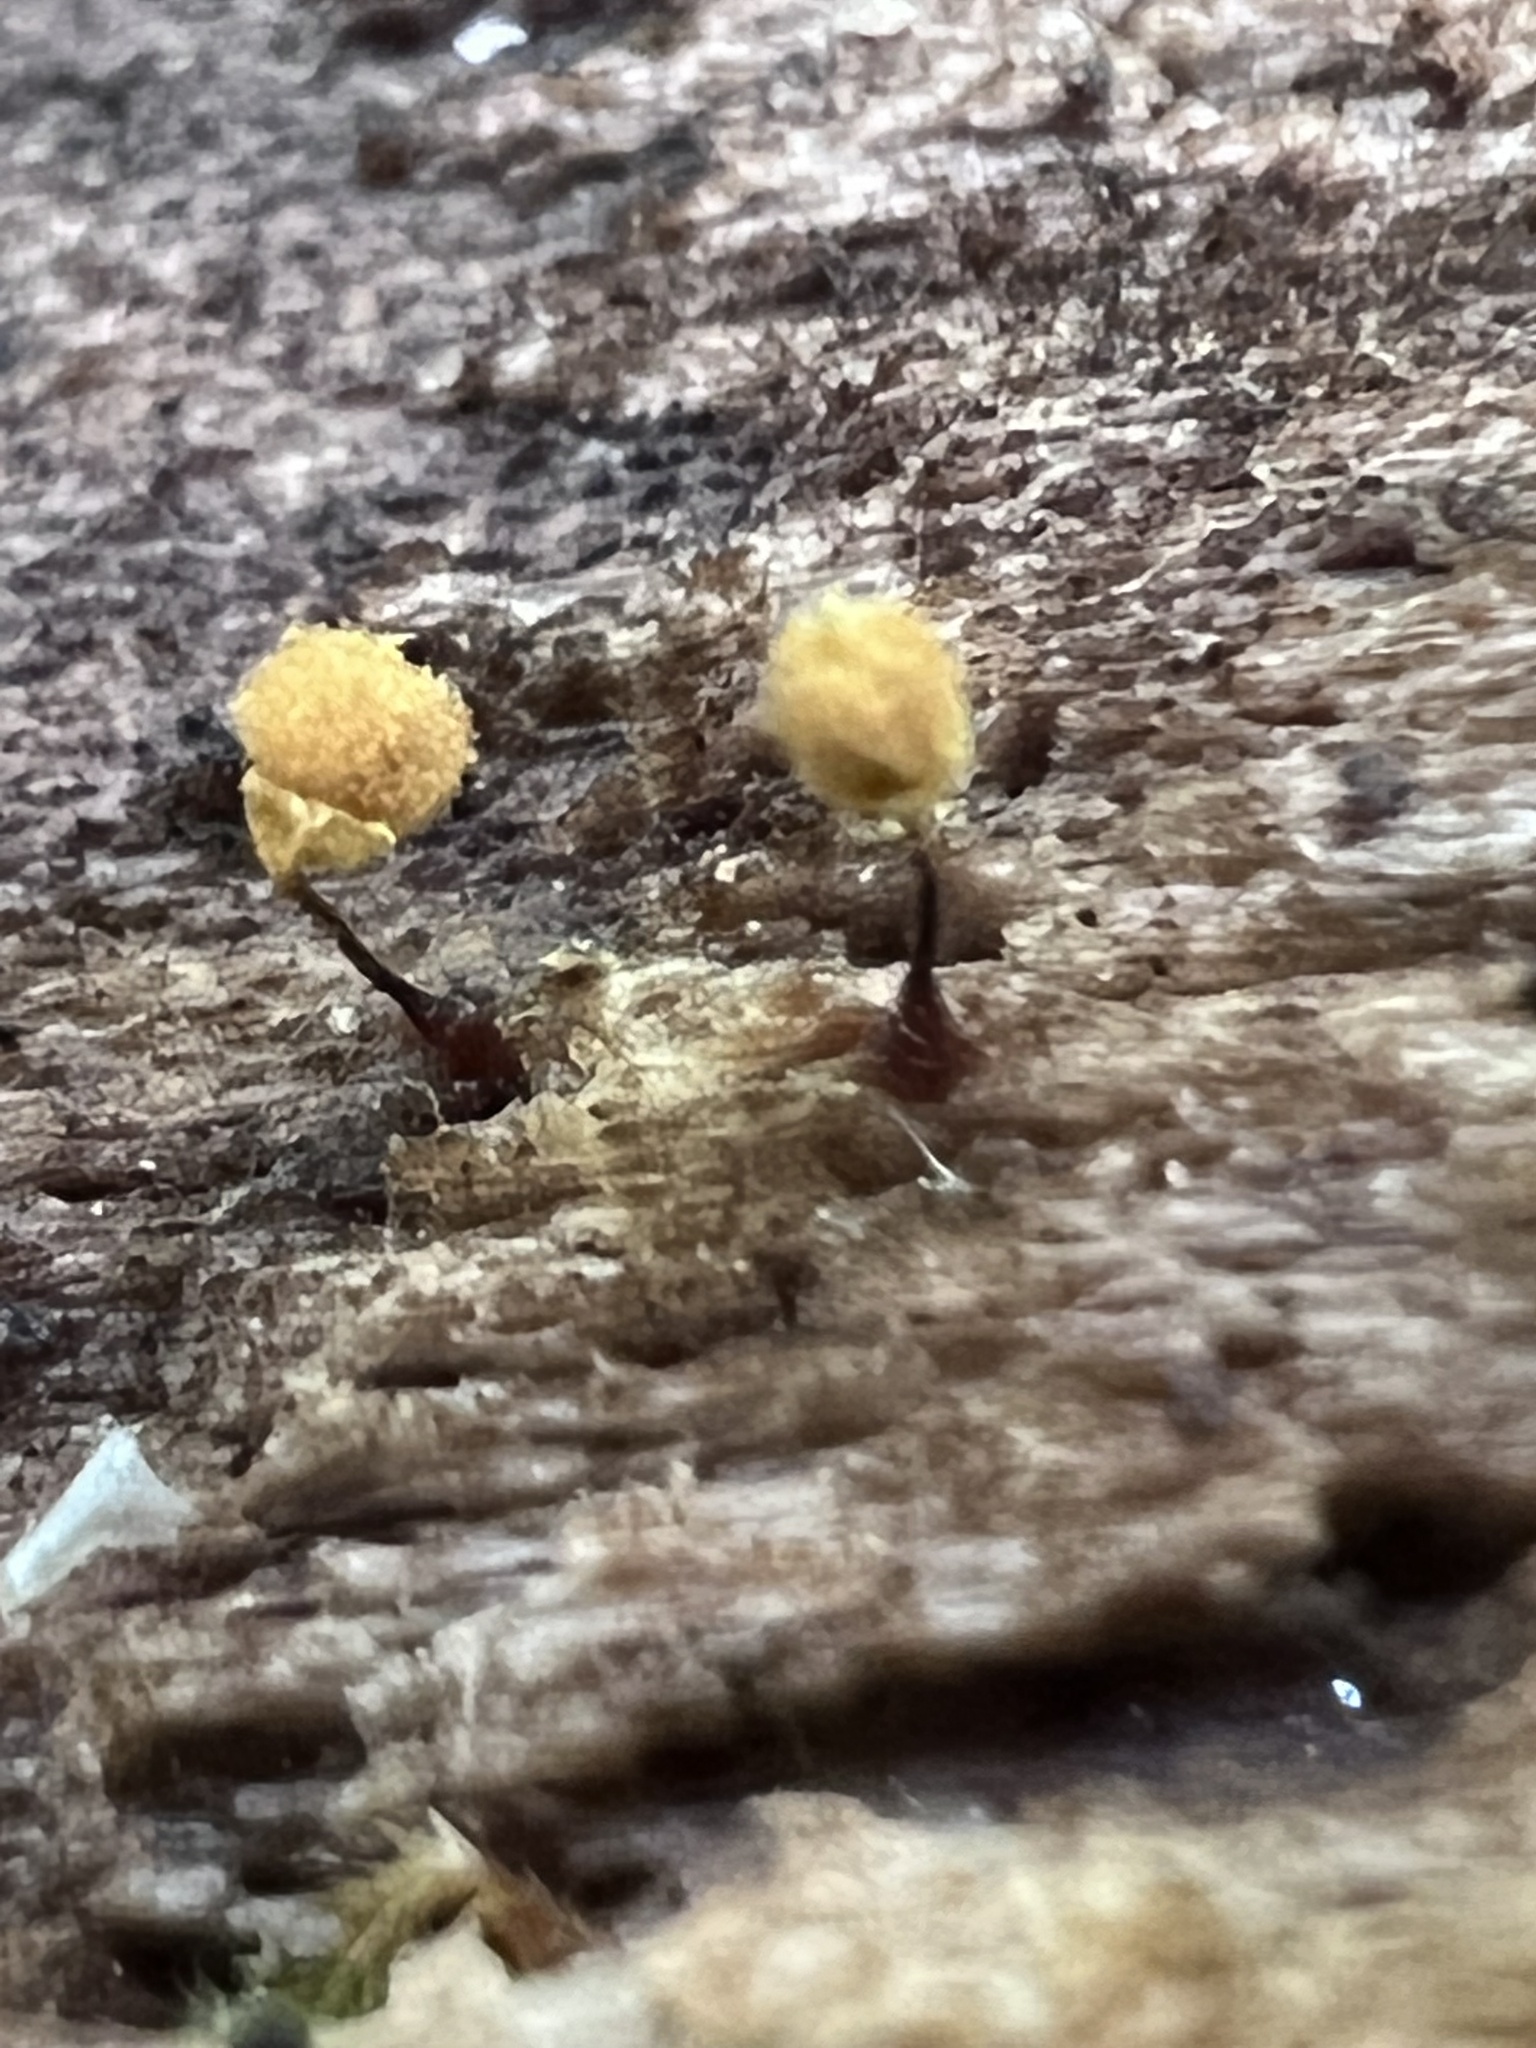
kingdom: Protozoa
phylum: Mycetozoa
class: Myxomycetes
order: Trichiales
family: Arcyriaceae
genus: Hemitrichia
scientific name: Hemitrichia calyculata
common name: Push pin slime mold
